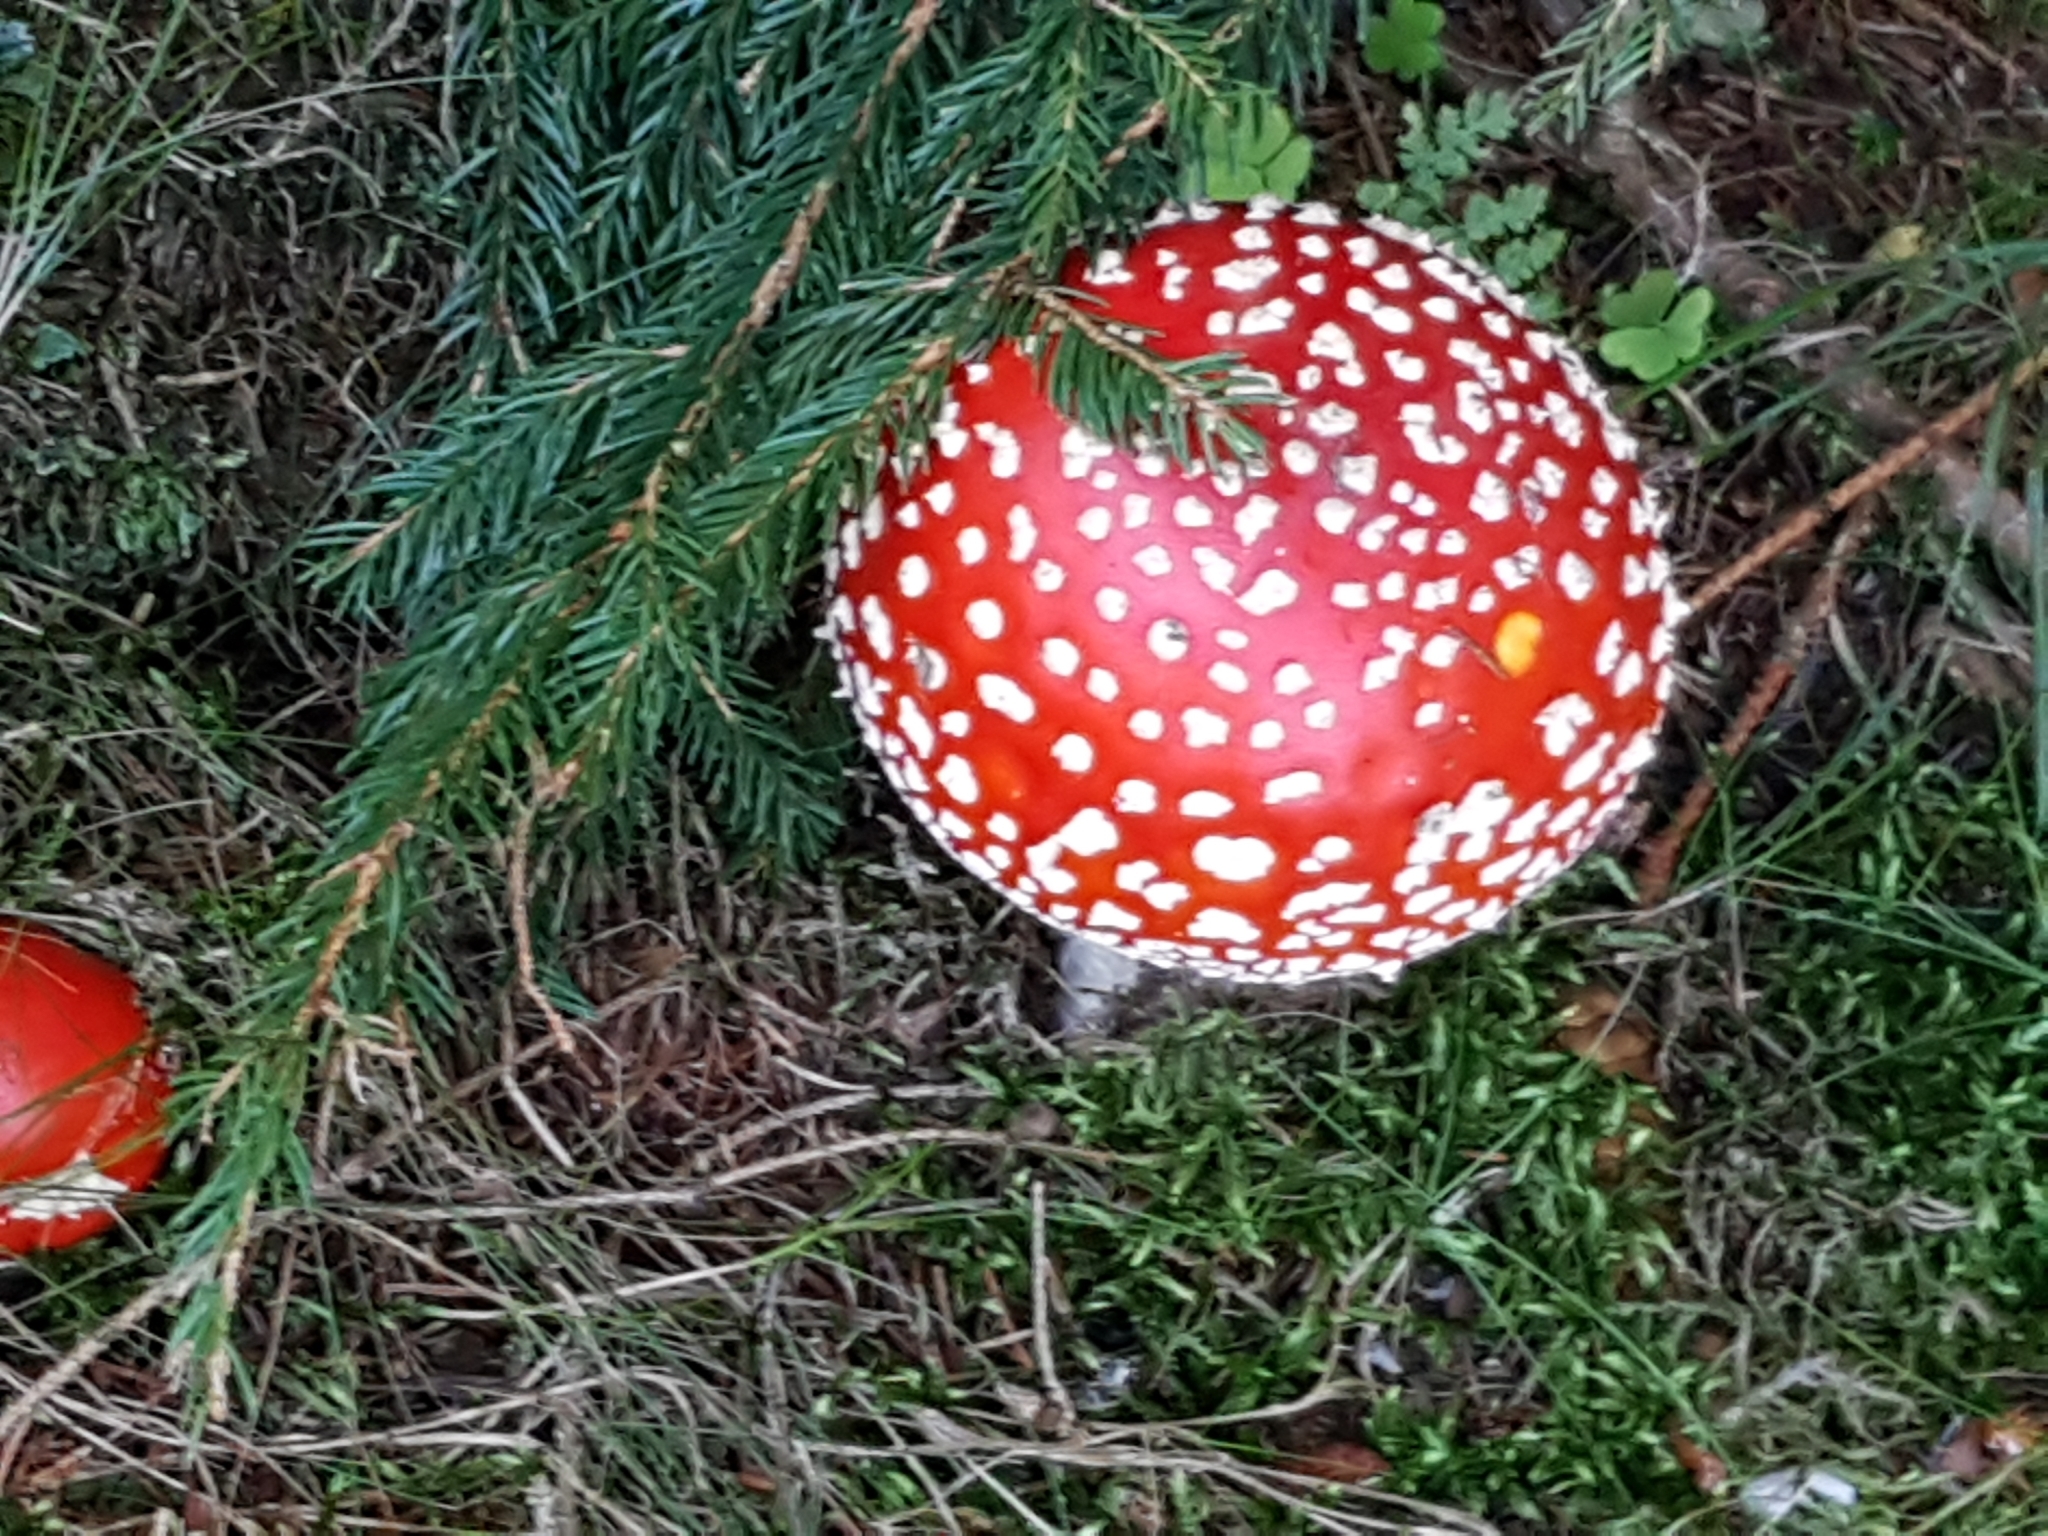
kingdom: Fungi
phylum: Basidiomycota
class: Agaricomycetes
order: Agaricales
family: Amanitaceae
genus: Amanita
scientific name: Amanita muscaria
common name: Fly agaric
